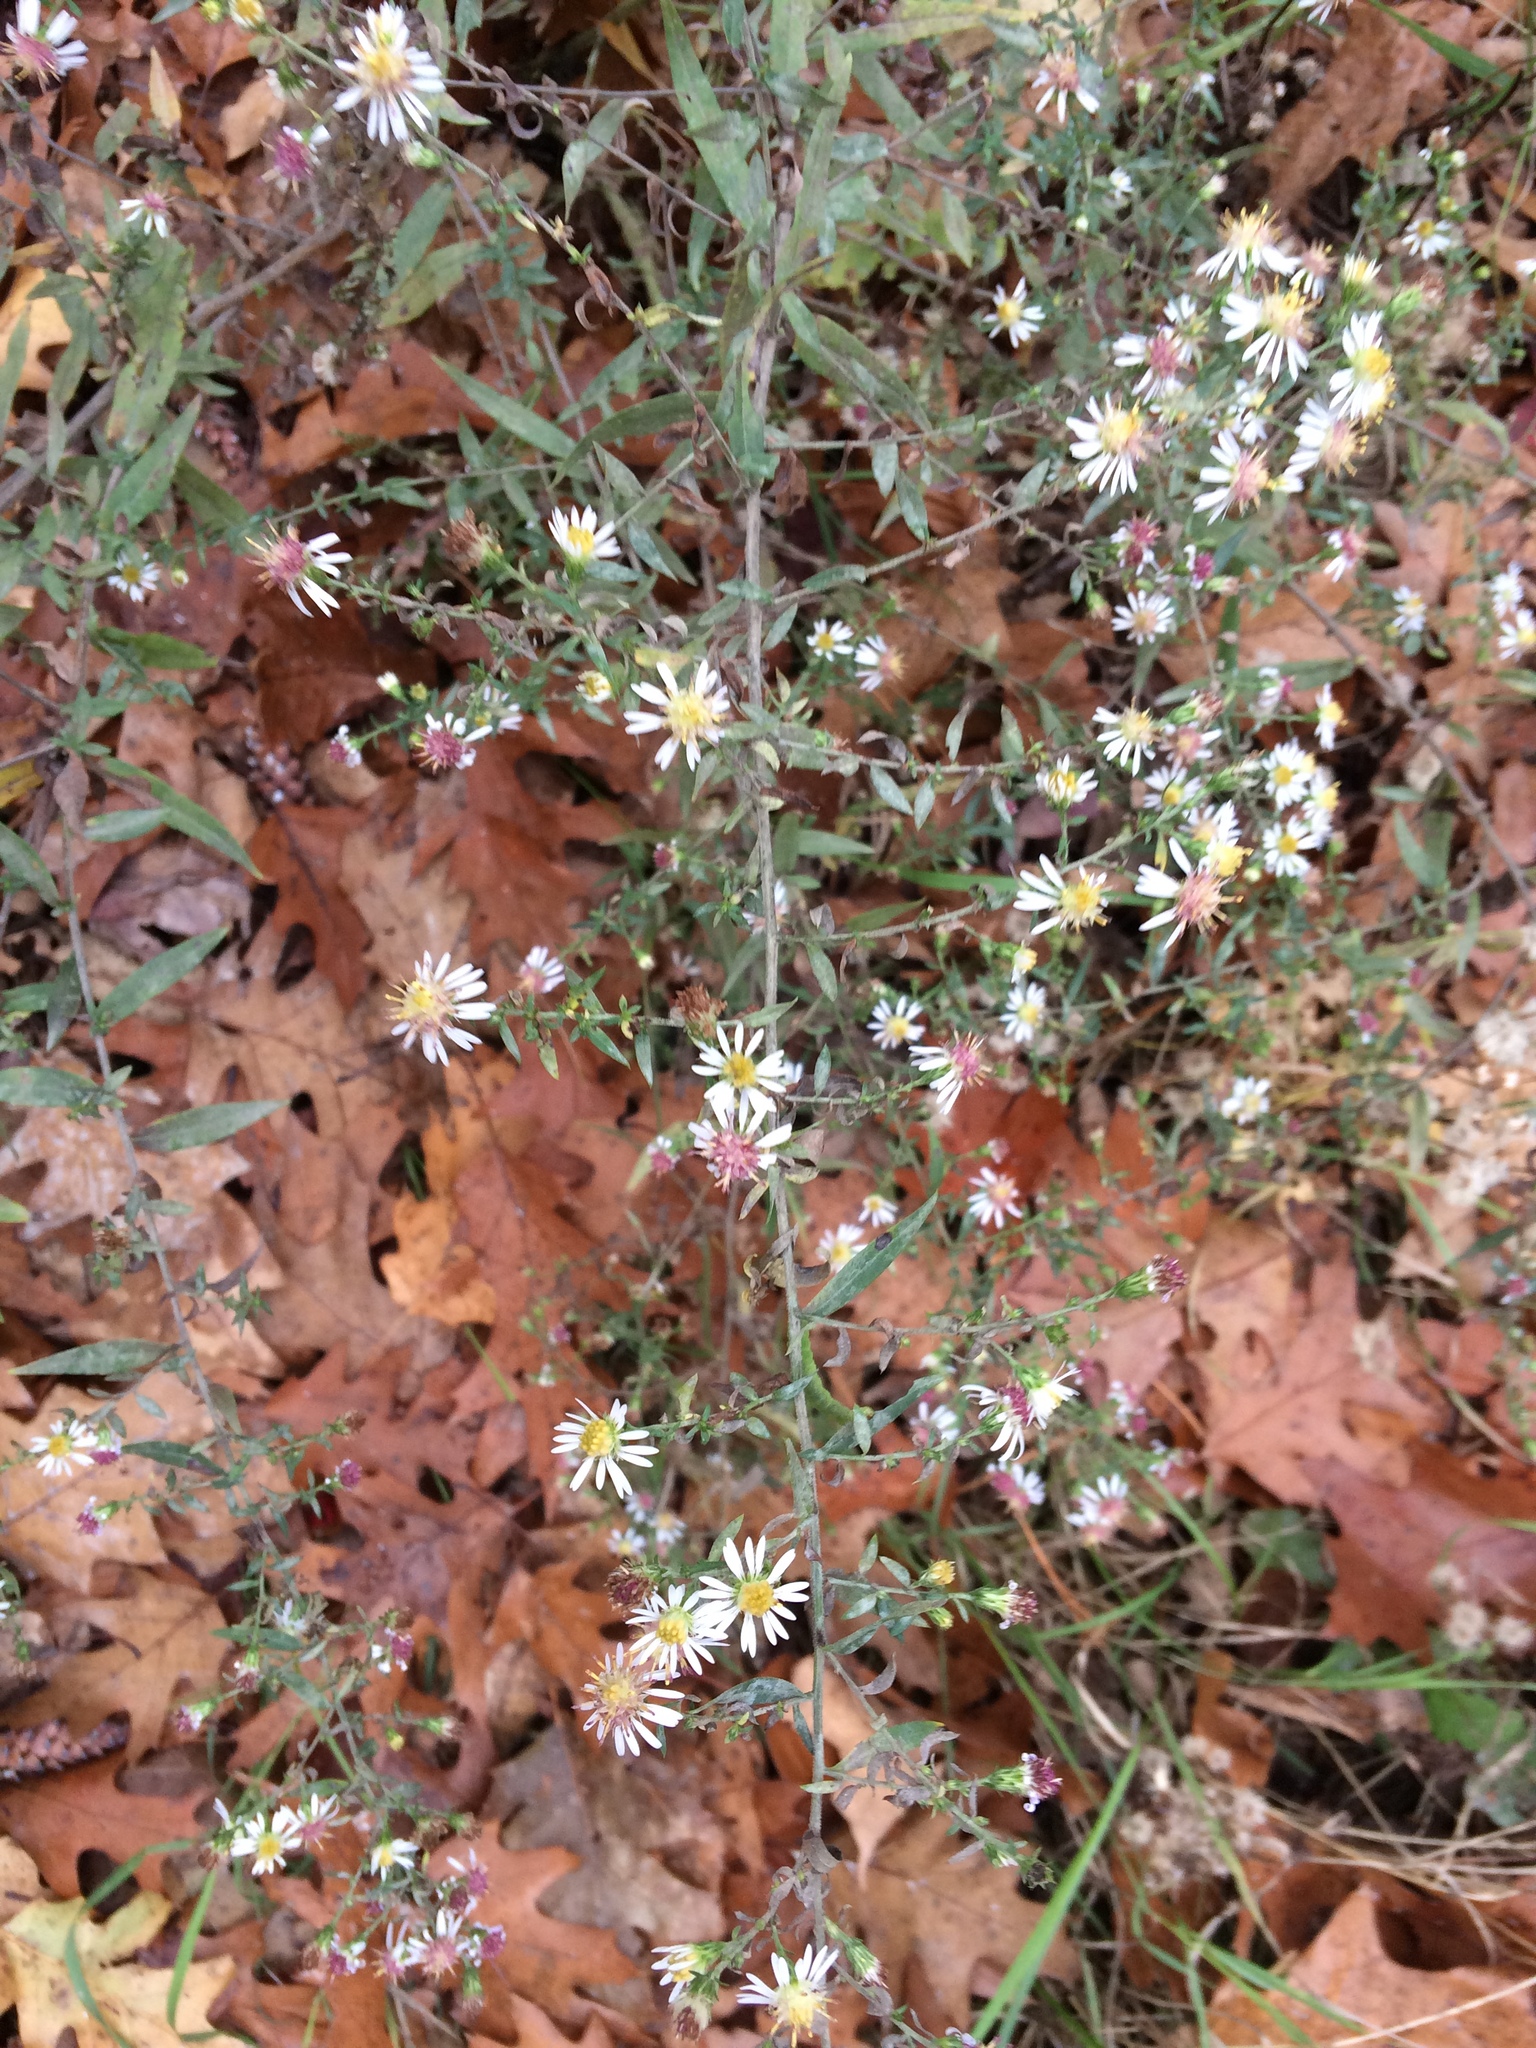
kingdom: Plantae
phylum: Tracheophyta
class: Magnoliopsida
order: Asterales
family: Asteraceae
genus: Symphyotrichum
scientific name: Symphyotrichum pilosum
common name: Awl aster
